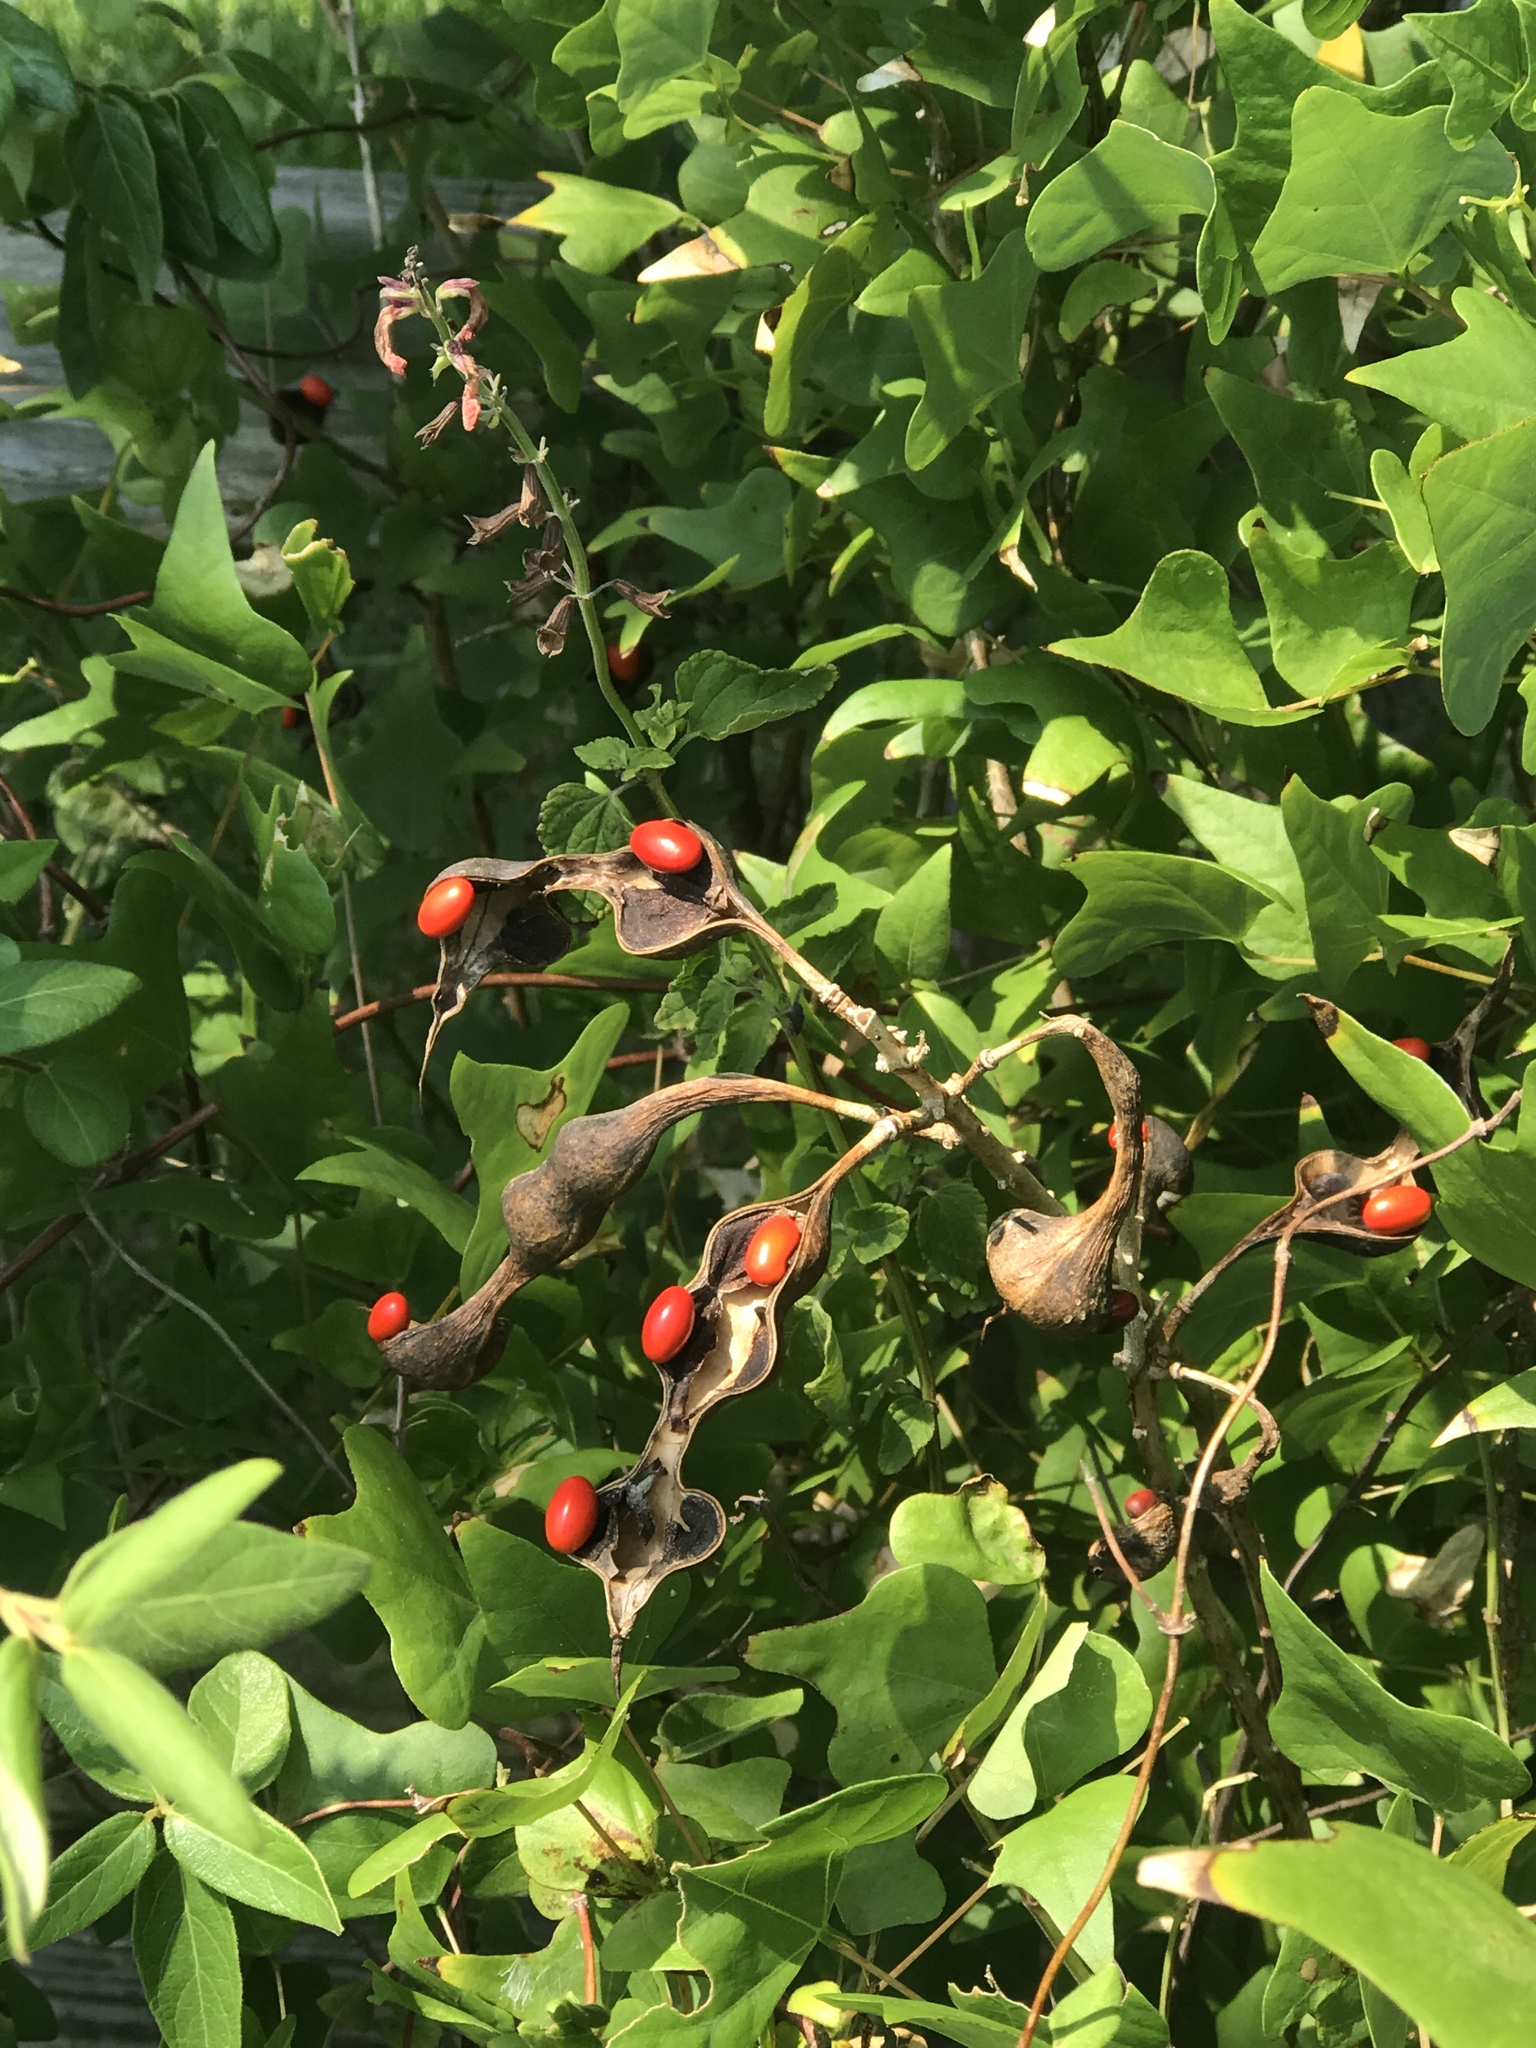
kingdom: Plantae
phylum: Tracheophyta
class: Magnoliopsida
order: Fabales
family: Fabaceae
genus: Erythrina
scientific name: Erythrina herbacea
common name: Coral-bean
